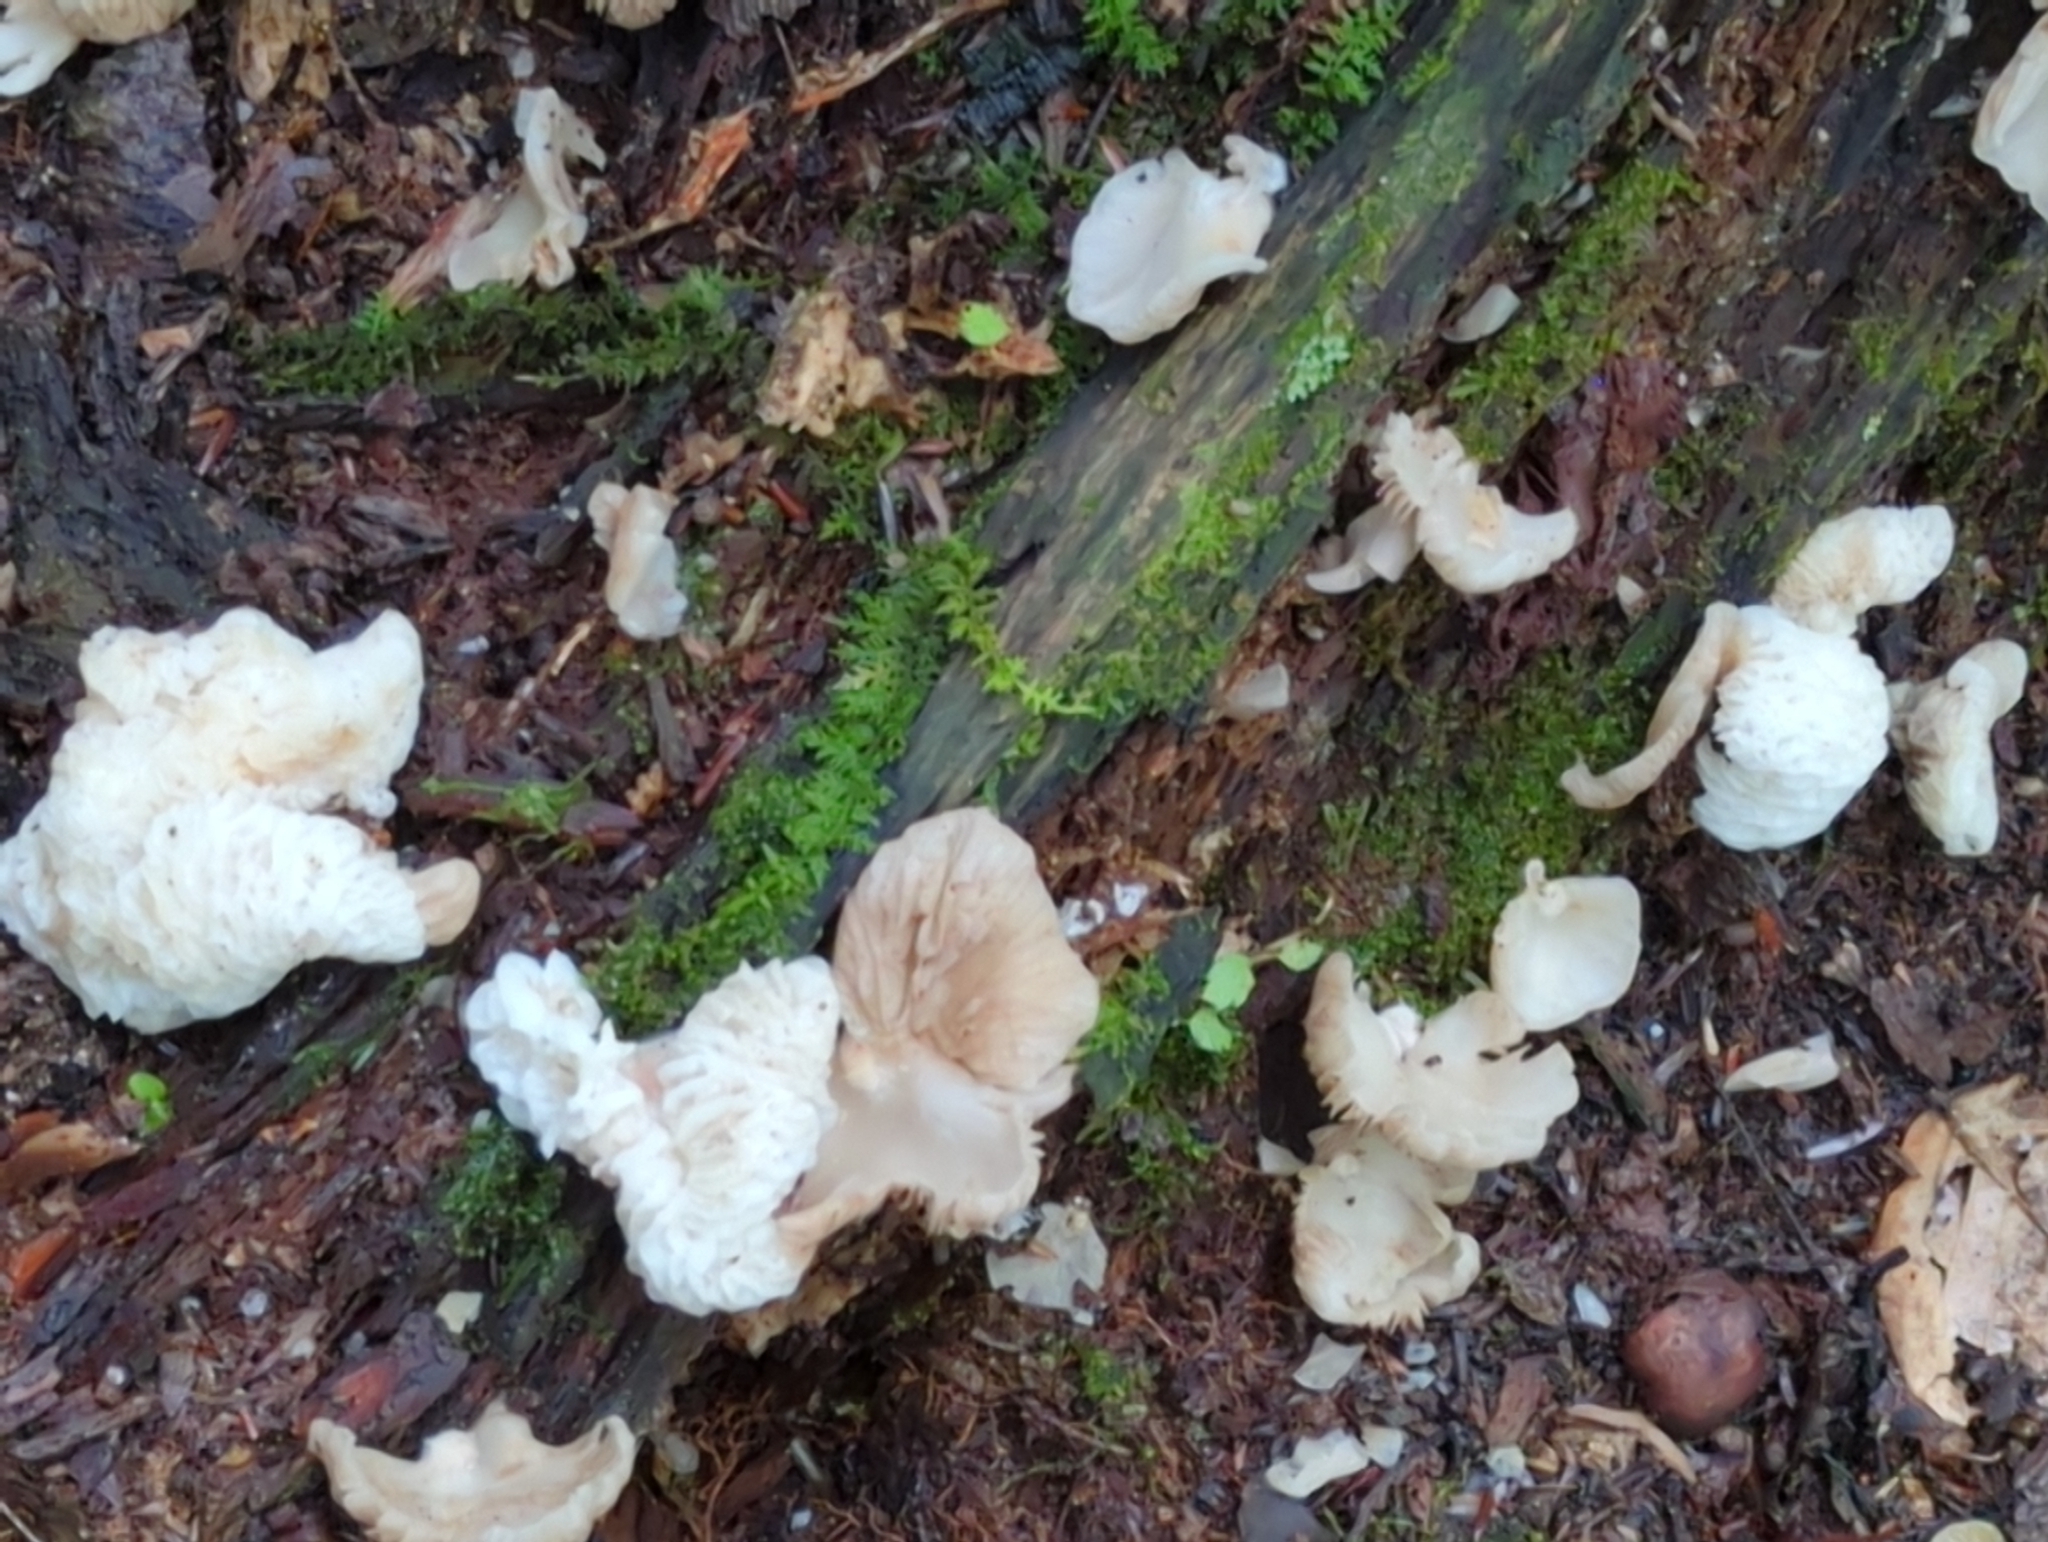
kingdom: Fungi
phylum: Ascomycota
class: Sordariomycetes
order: Hypocreales
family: Bionectriaceae
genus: Nectriopsis
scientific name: Nectriopsis tremellicola
